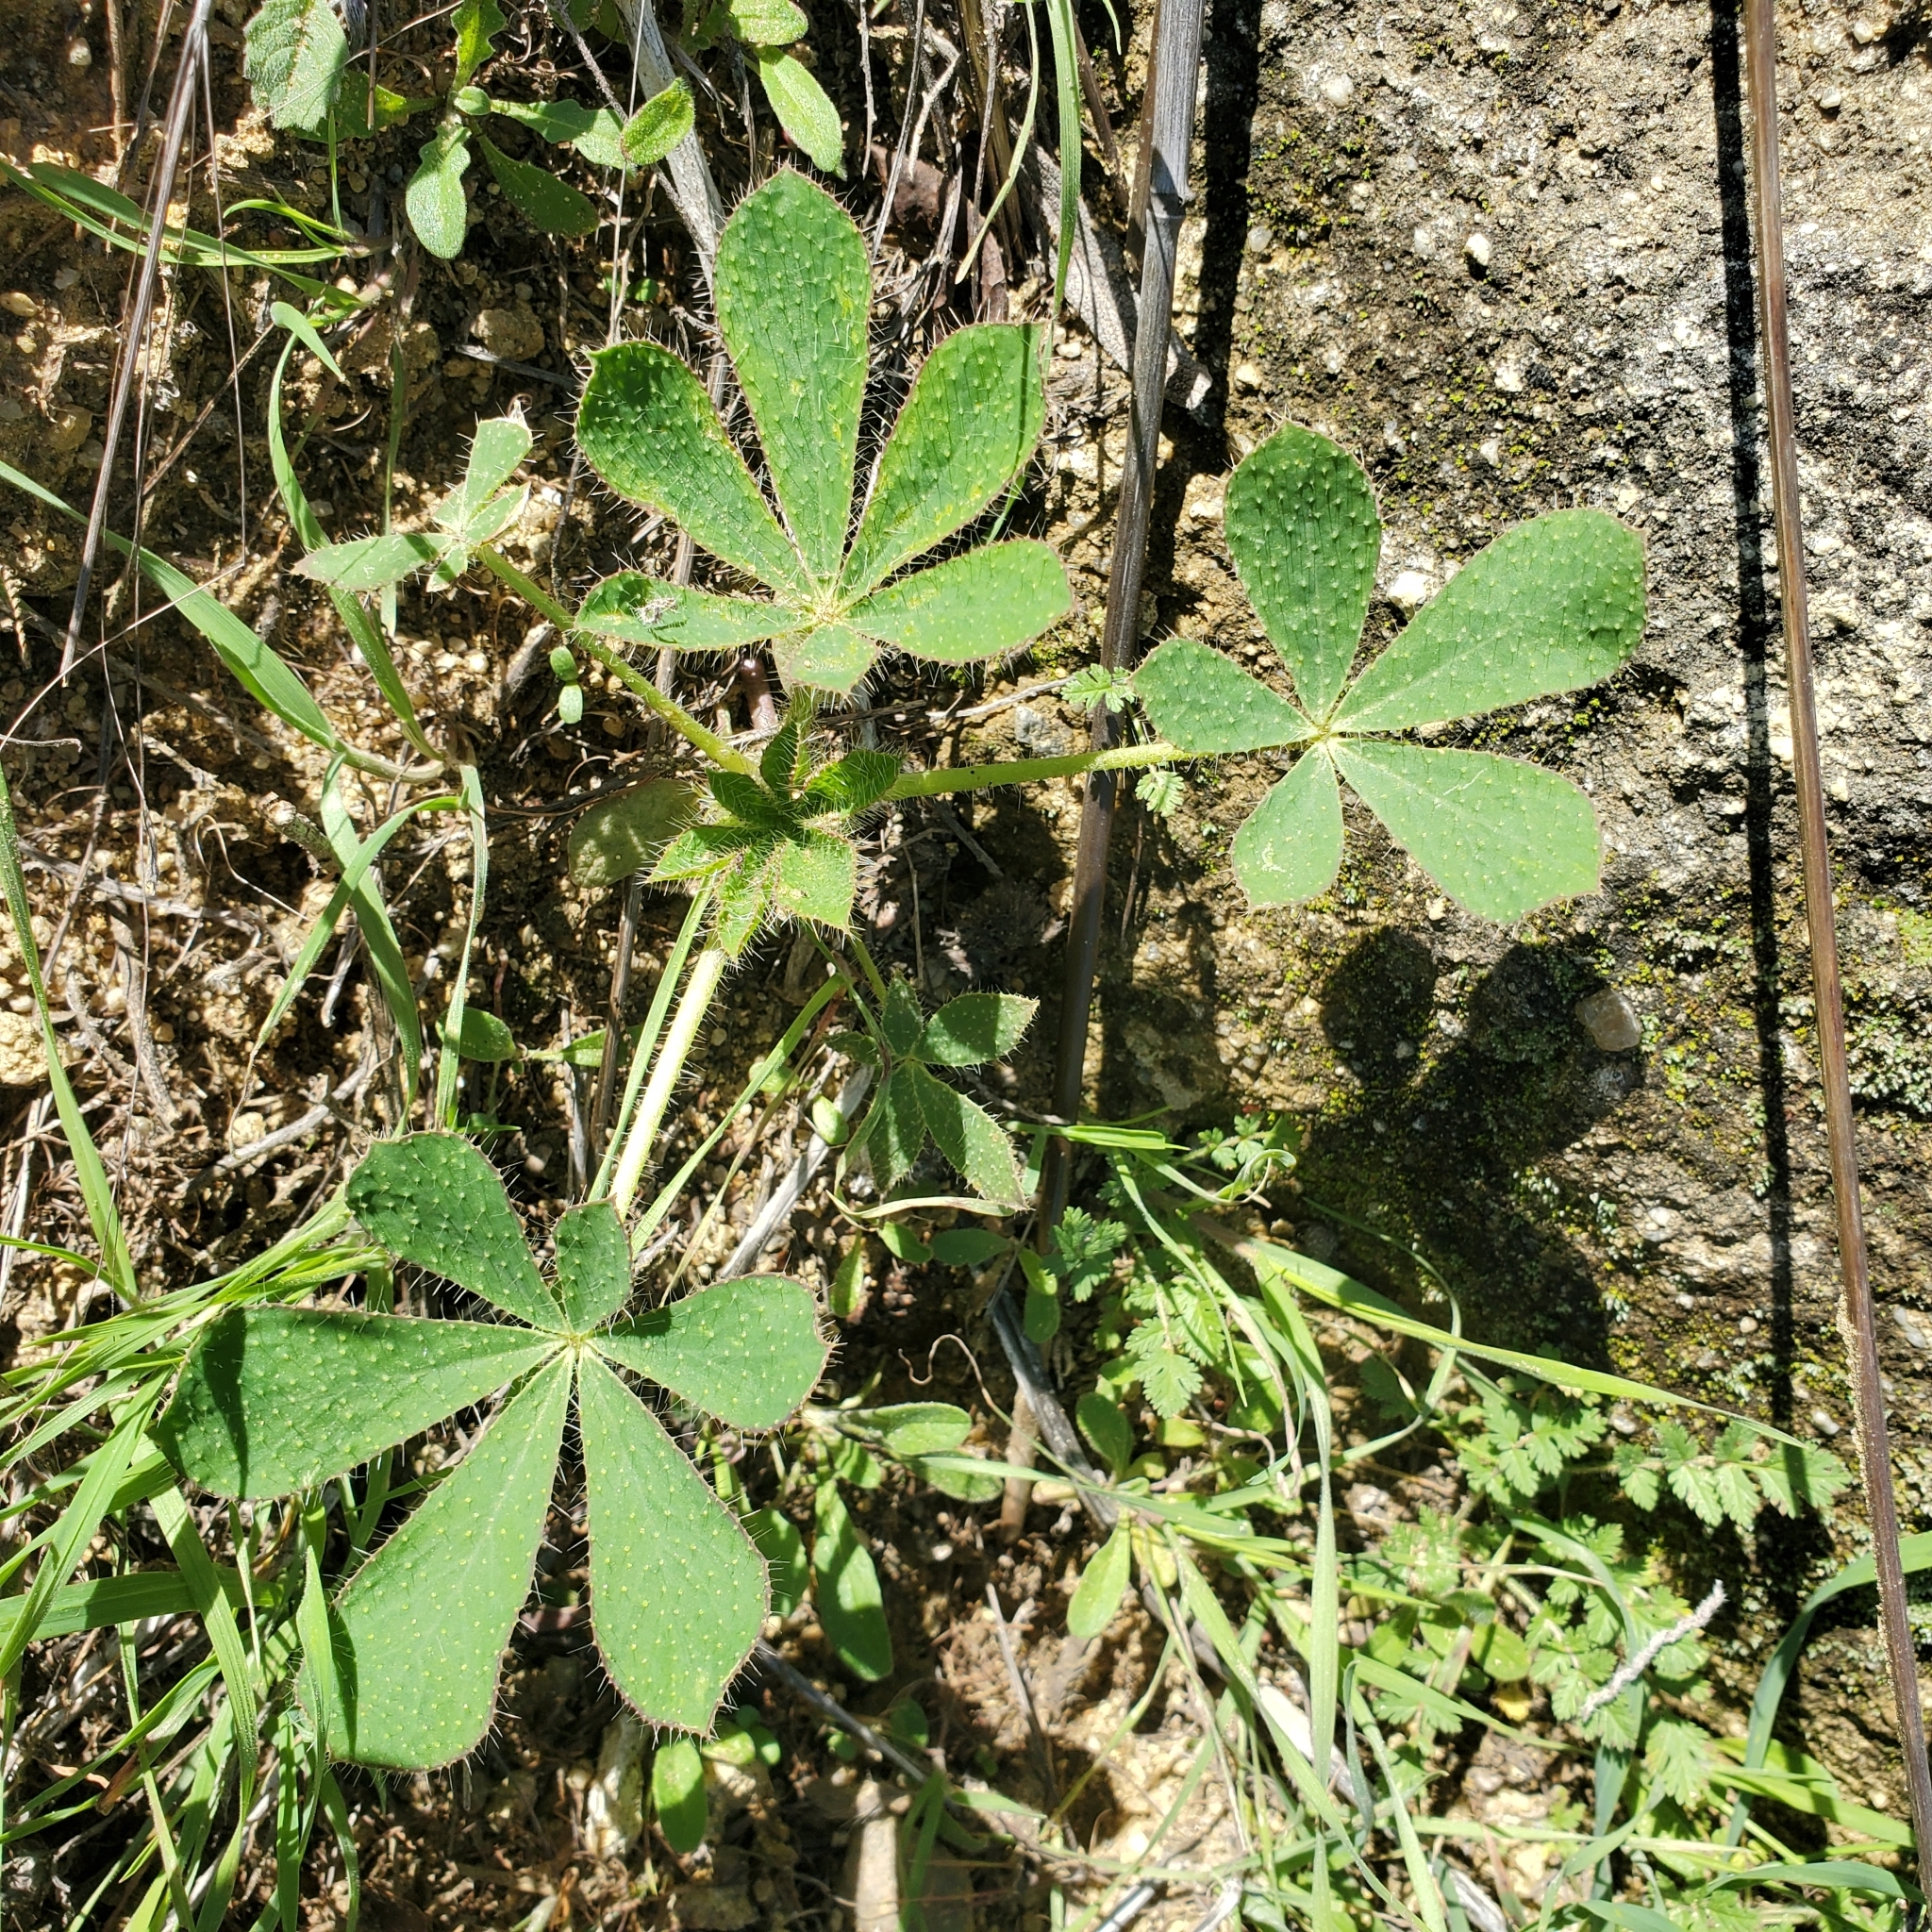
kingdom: Plantae
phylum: Tracheophyta
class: Magnoliopsida
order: Fabales
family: Fabaceae
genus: Lupinus
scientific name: Lupinus hirsutissimus
